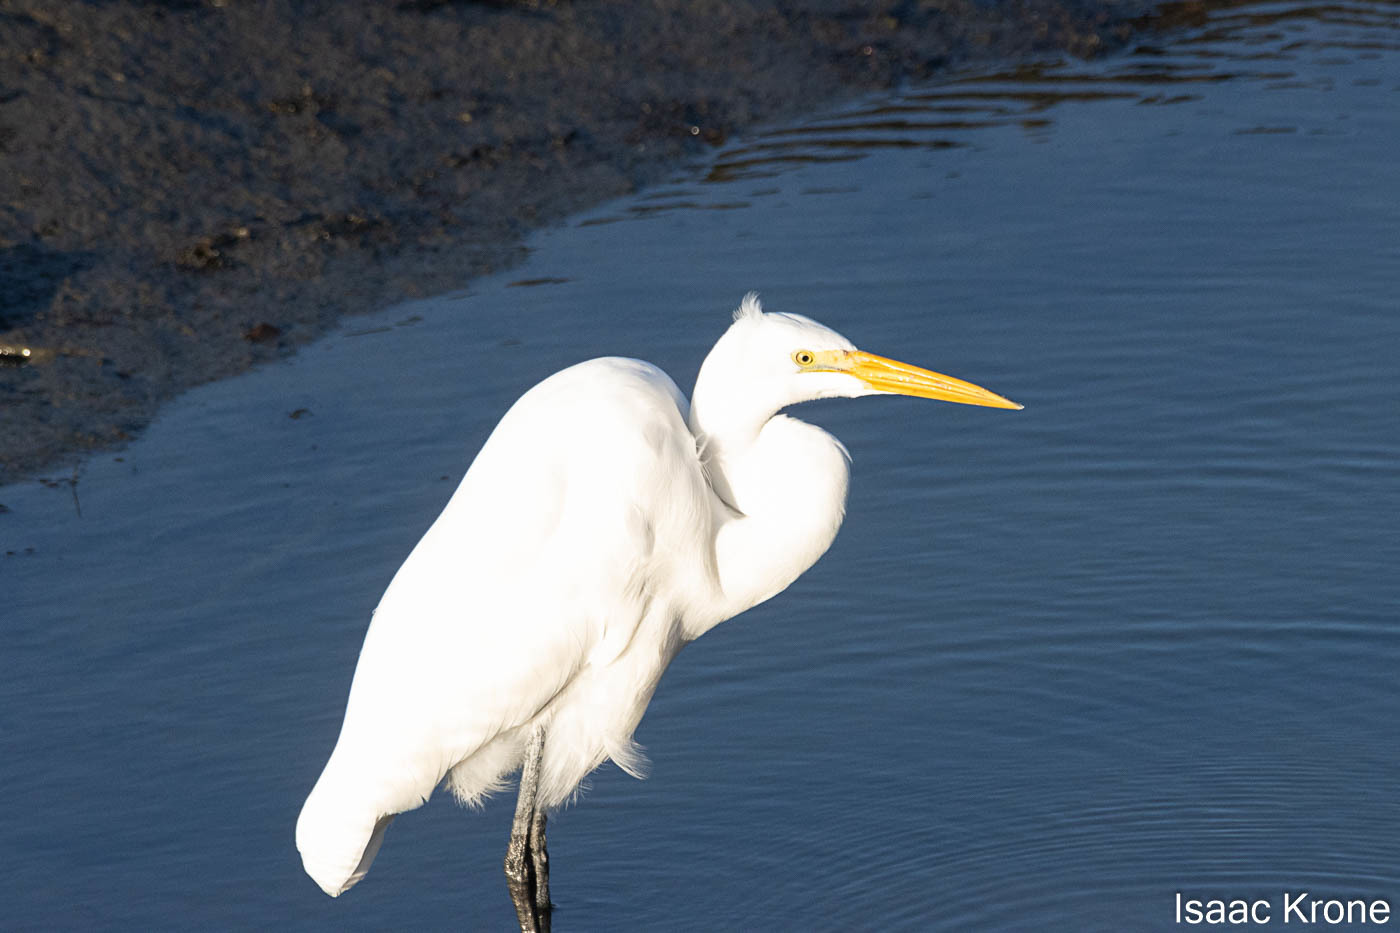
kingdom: Animalia
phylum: Chordata
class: Aves
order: Pelecaniformes
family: Ardeidae
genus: Ardea
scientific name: Ardea alba
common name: Great egret
